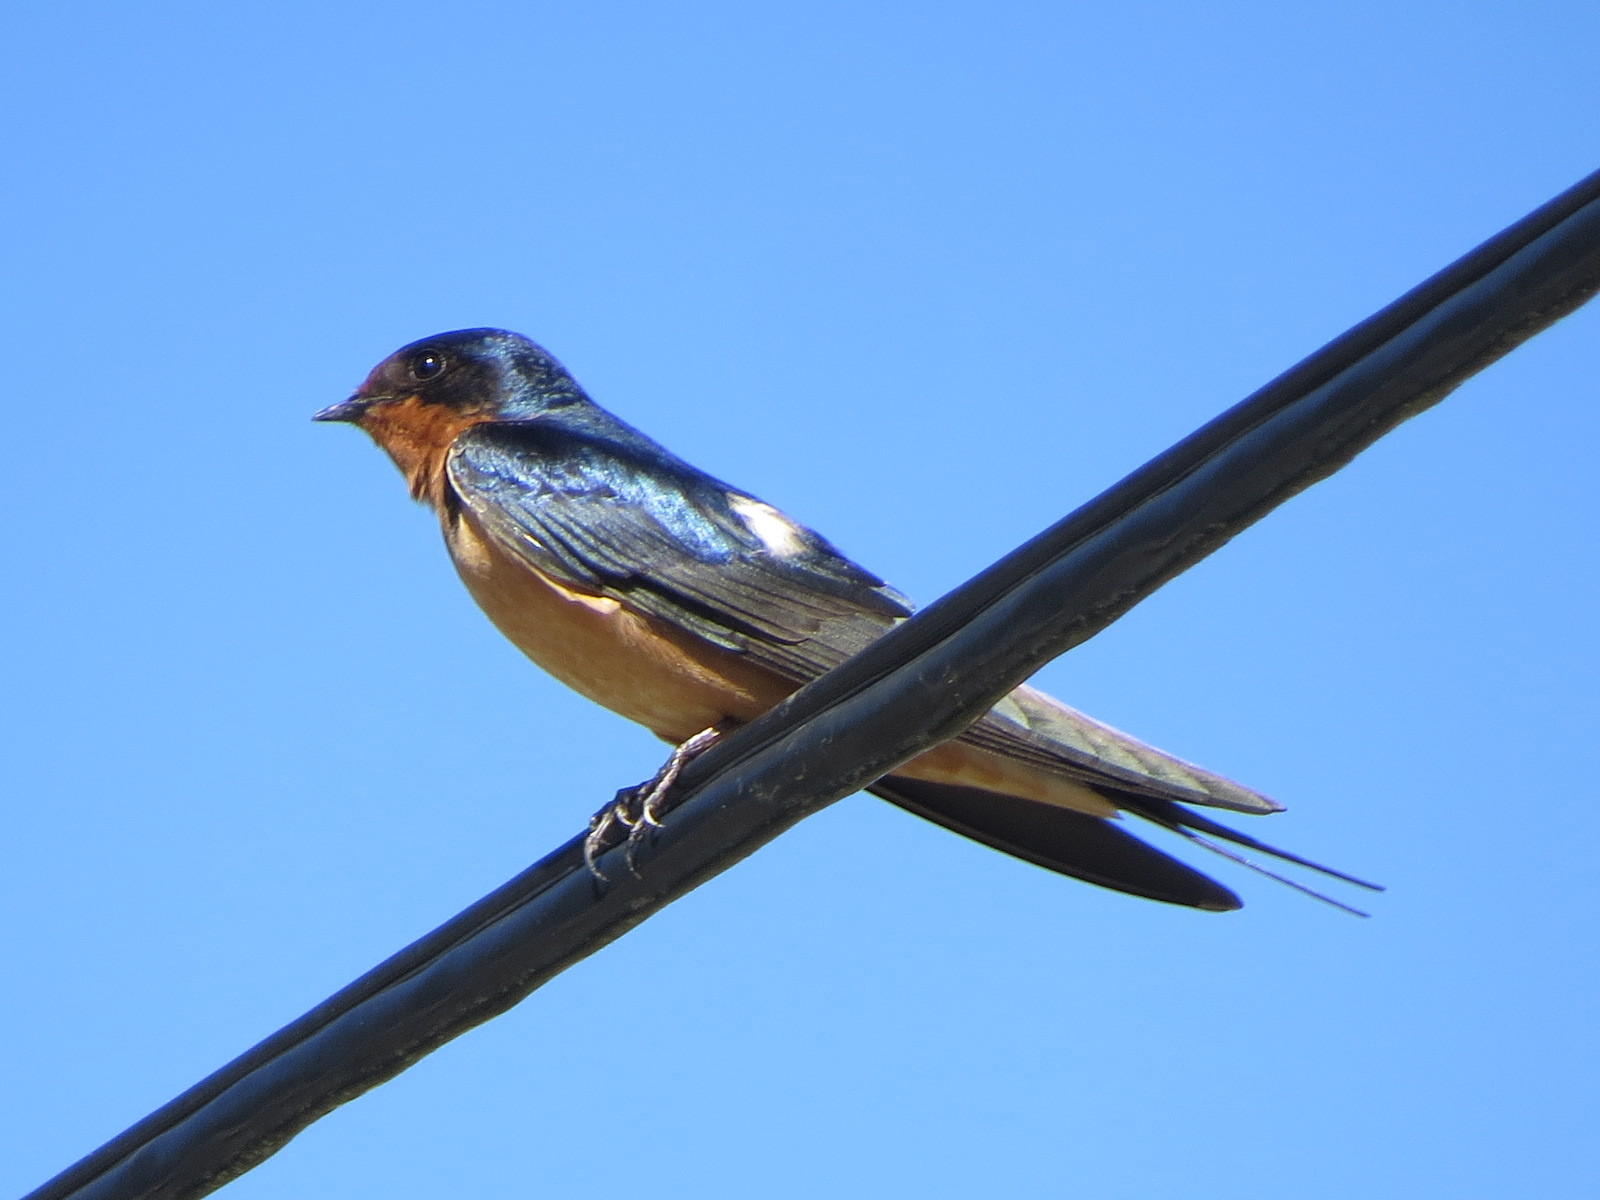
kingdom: Animalia
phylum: Chordata
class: Aves
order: Passeriformes
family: Hirundinidae
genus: Hirundo
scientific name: Hirundo rustica
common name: Barn swallow
